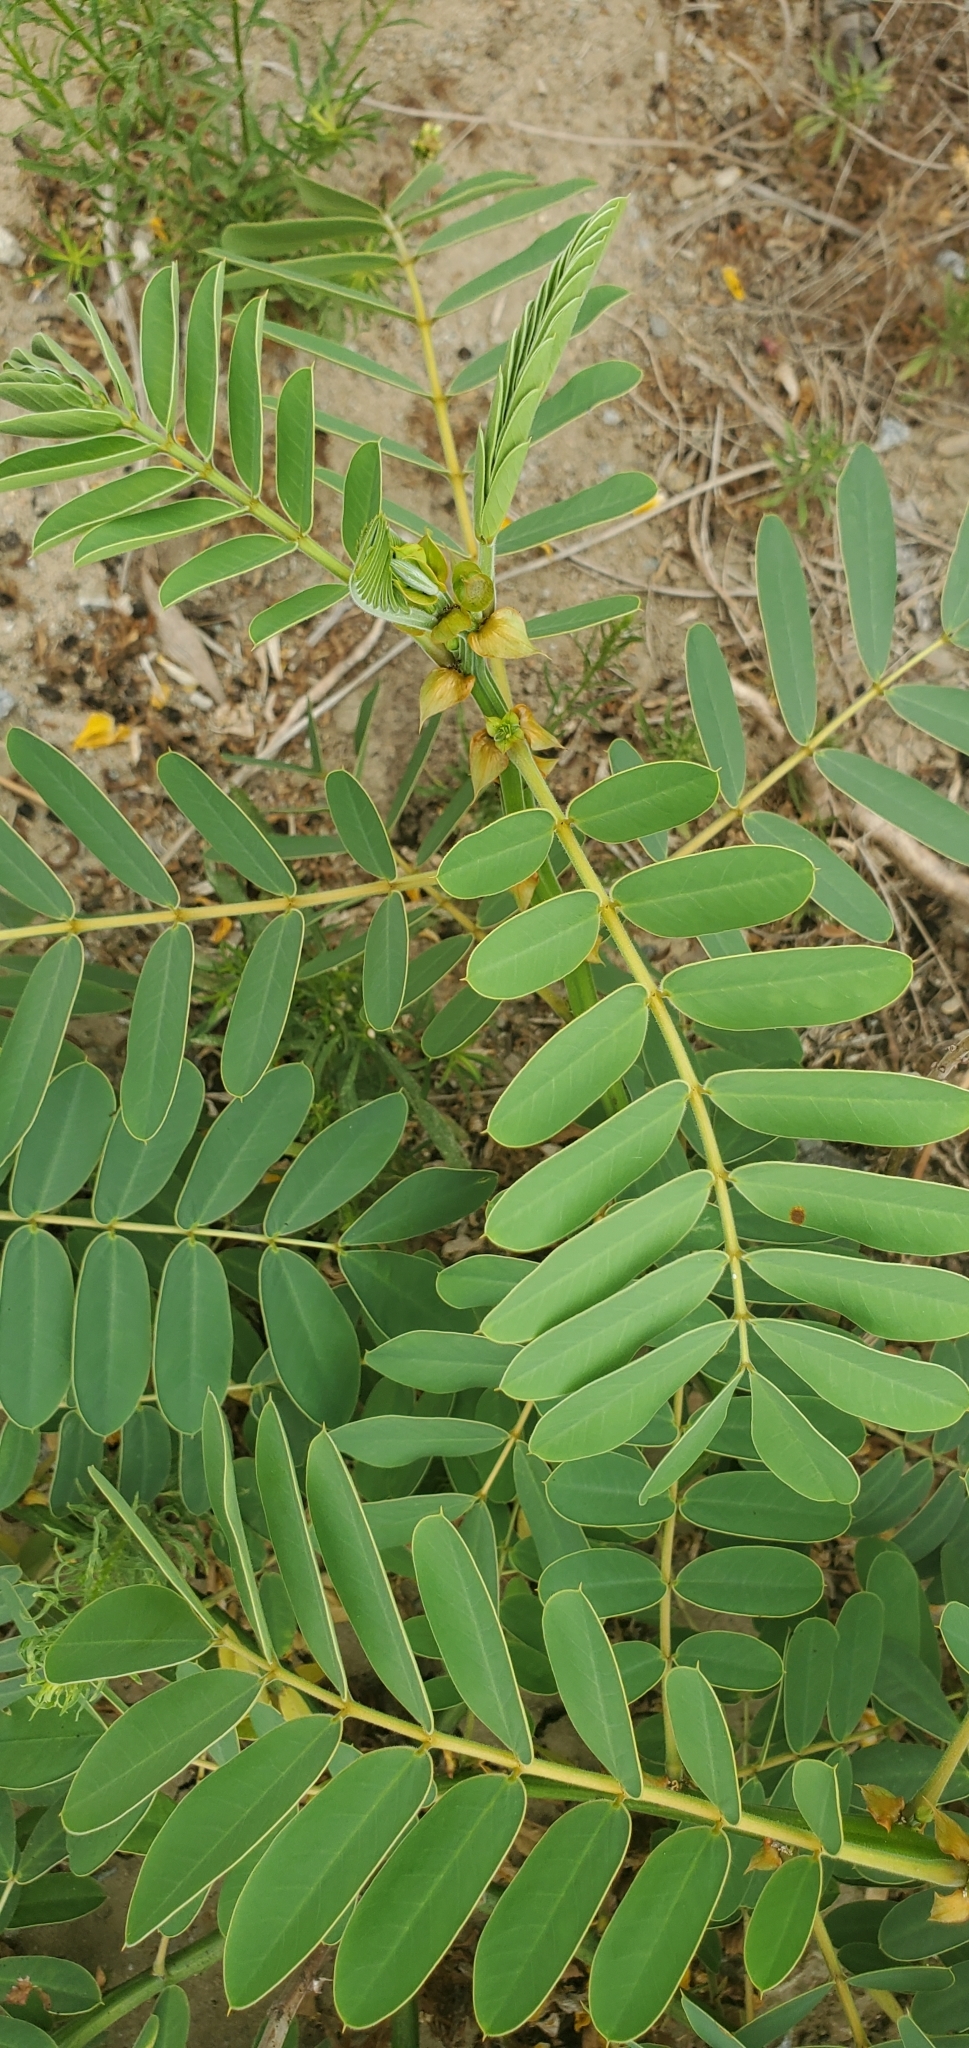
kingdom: Plantae
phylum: Tracheophyta
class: Magnoliopsida
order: Fabales
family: Fabaceae
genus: Senna
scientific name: Senna didymobotrya
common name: African senna
